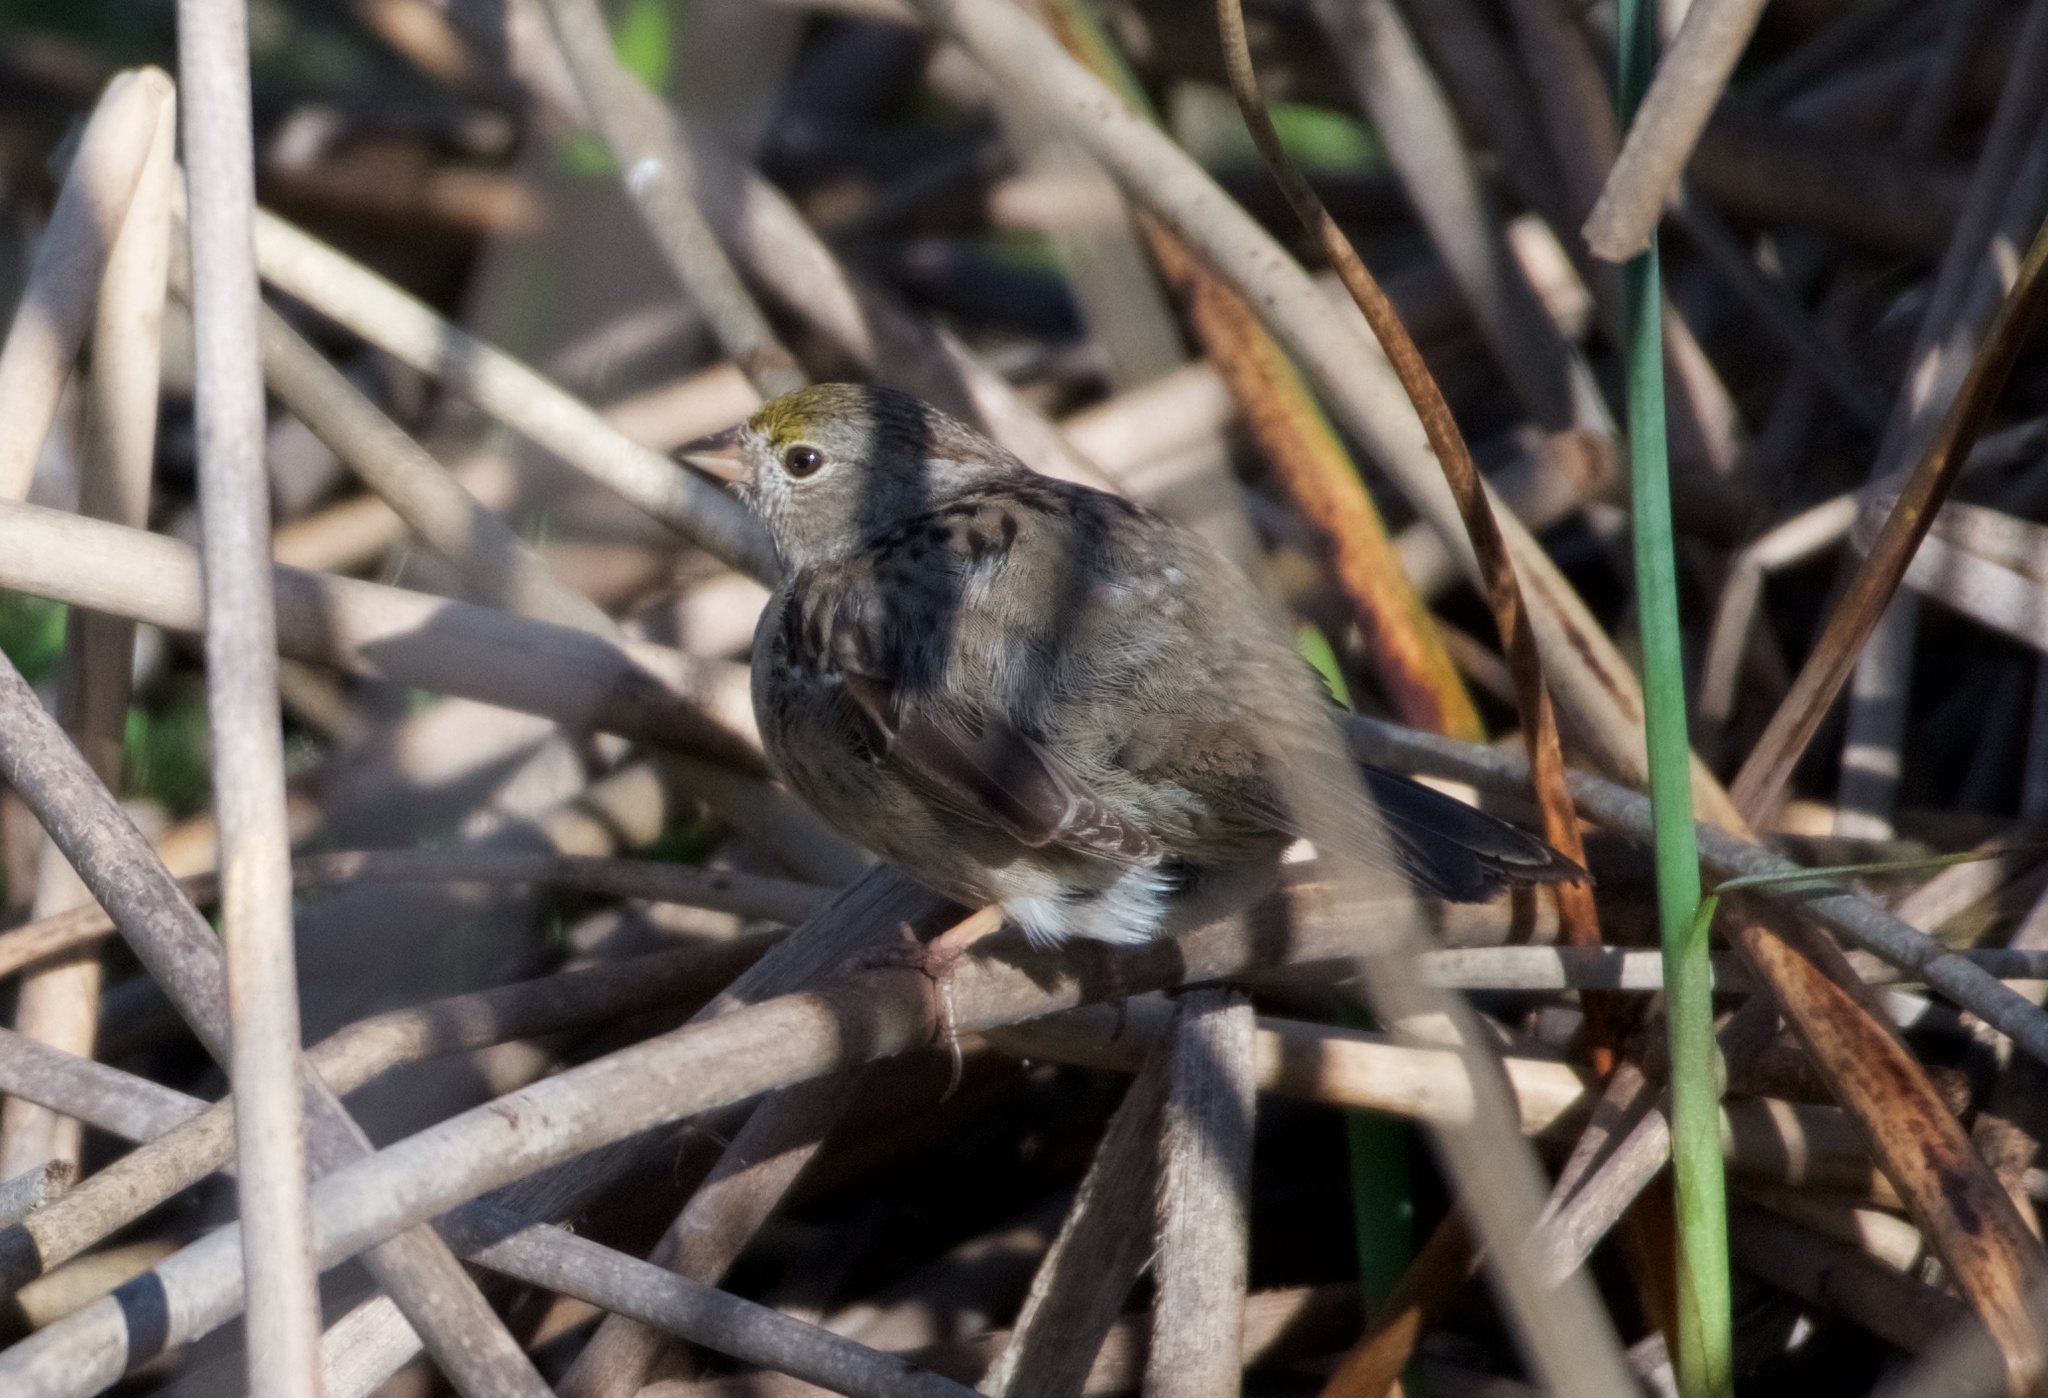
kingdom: Animalia
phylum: Chordata
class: Aves
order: Passeriformes
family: Passerellidae
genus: Zonotrichia
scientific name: Zonotrichia atricapilla
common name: Golden-crowned sparrow
